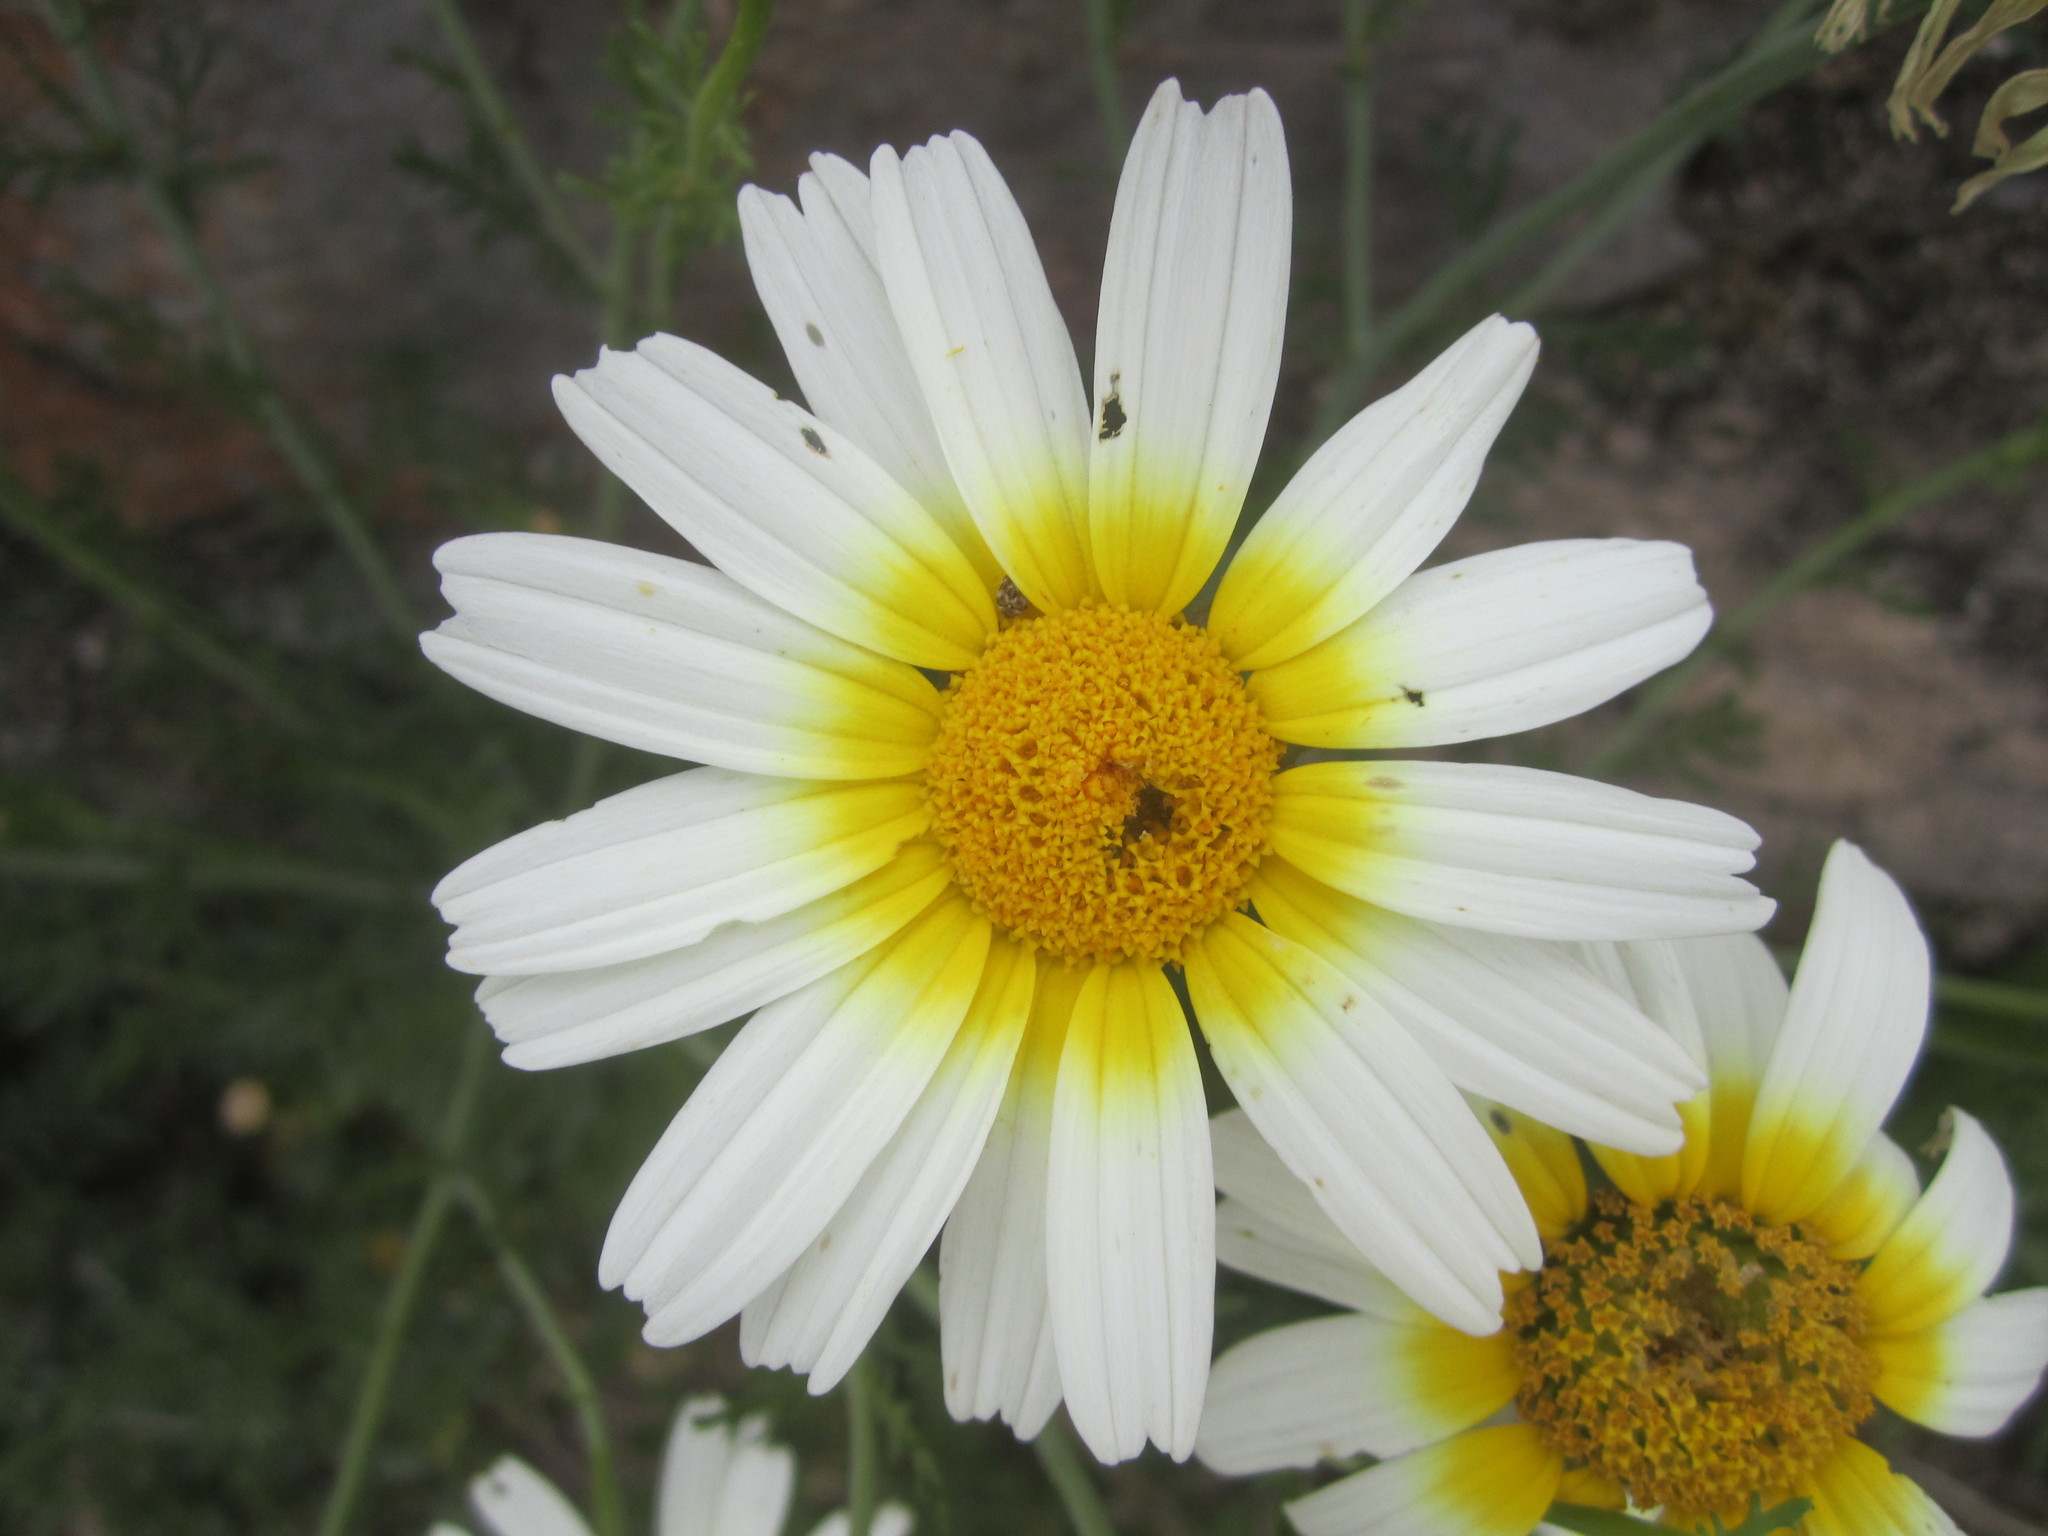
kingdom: Plantae
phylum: Tracheophyta
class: Magnoliopsida
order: Asterales
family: Asteraceae
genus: Glebionis
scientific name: Glebionis coronaria
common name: Crowndaisy
